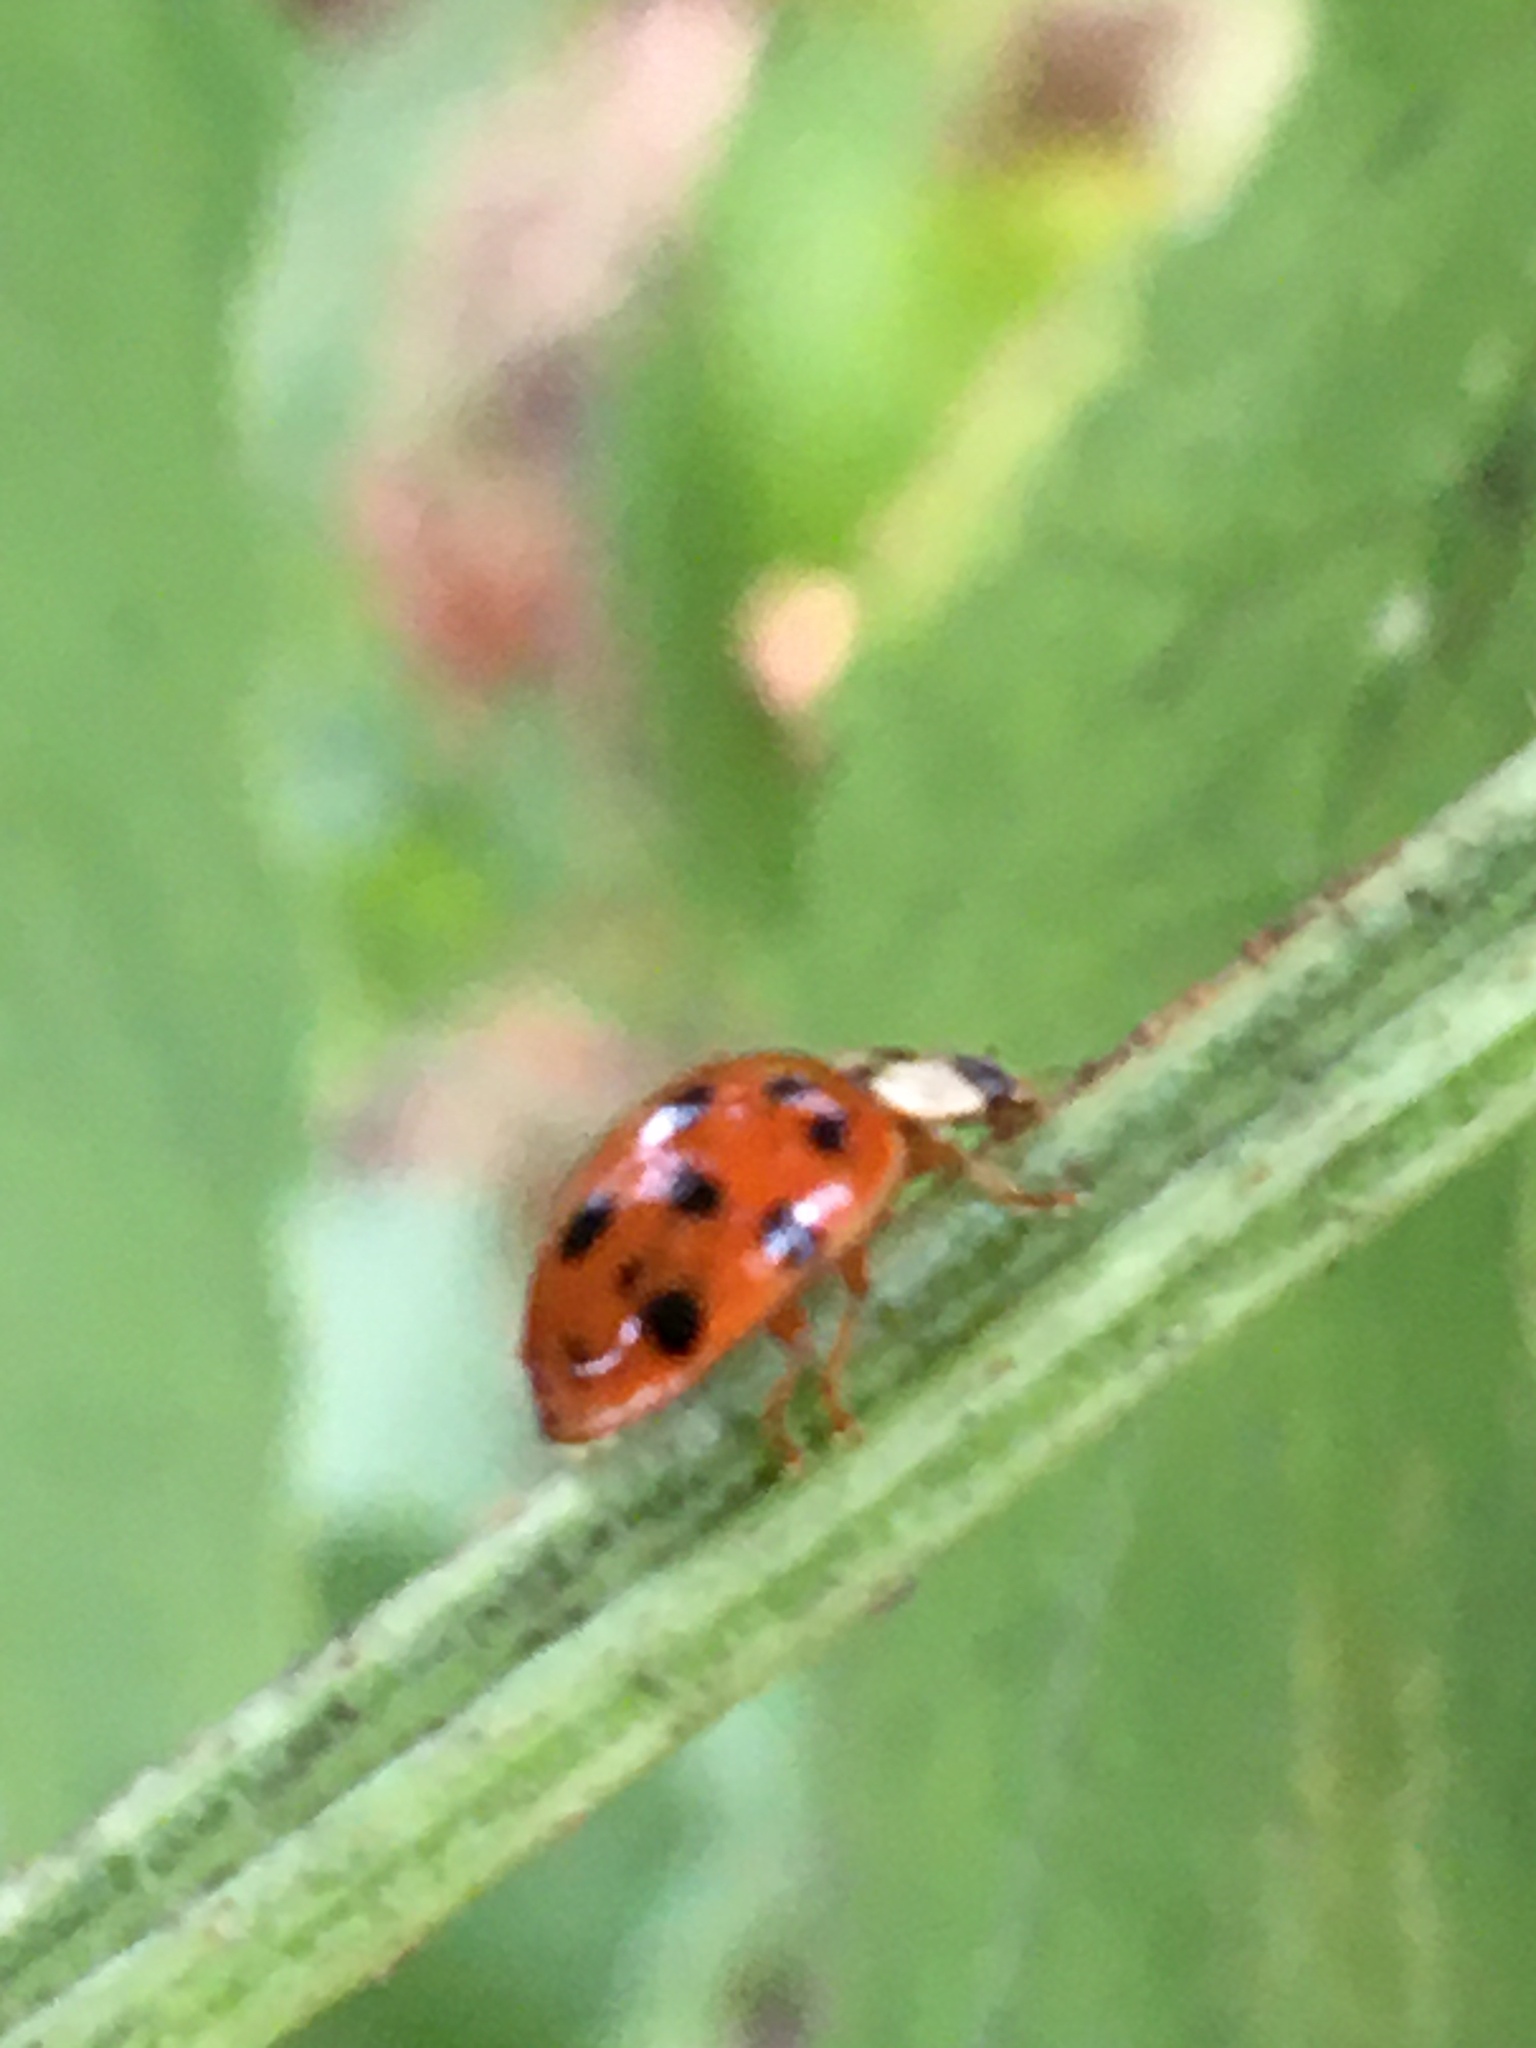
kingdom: Animalia
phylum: Arthropoda
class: Insecta
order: Coleoptera
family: Coccinellidae
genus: Harmonia
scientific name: Harmonia axyridis
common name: Harlequin ladybird
